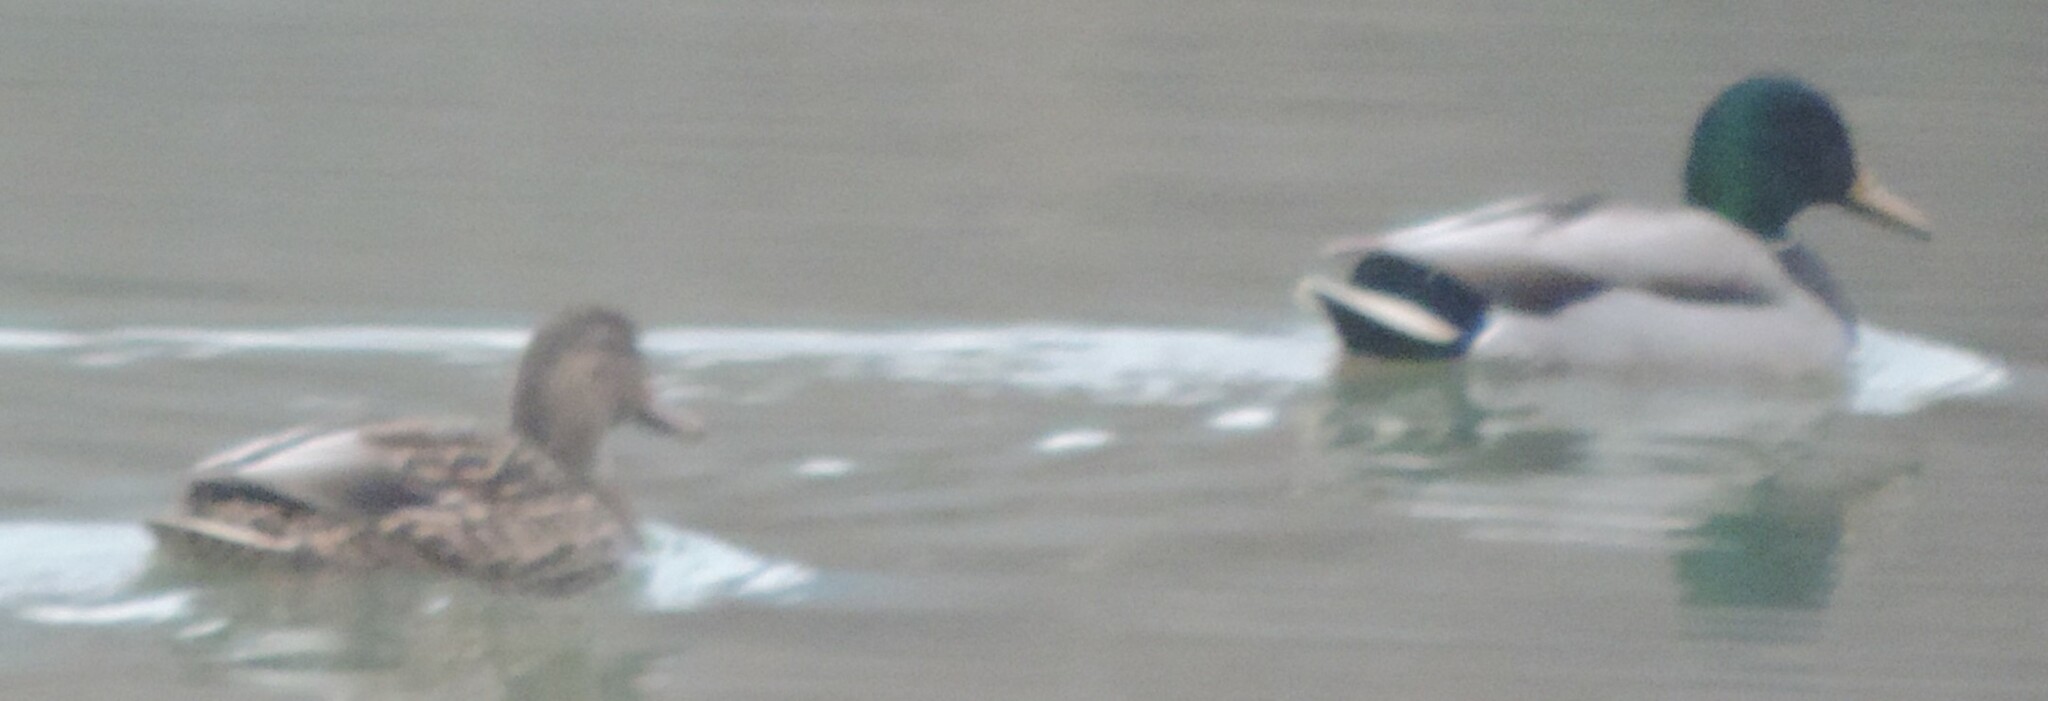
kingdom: Animalia
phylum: Chordata
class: Aves
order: Anseriformes
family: Anatidae
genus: Anas
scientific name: Anas platyrhynchos
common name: Mallard
